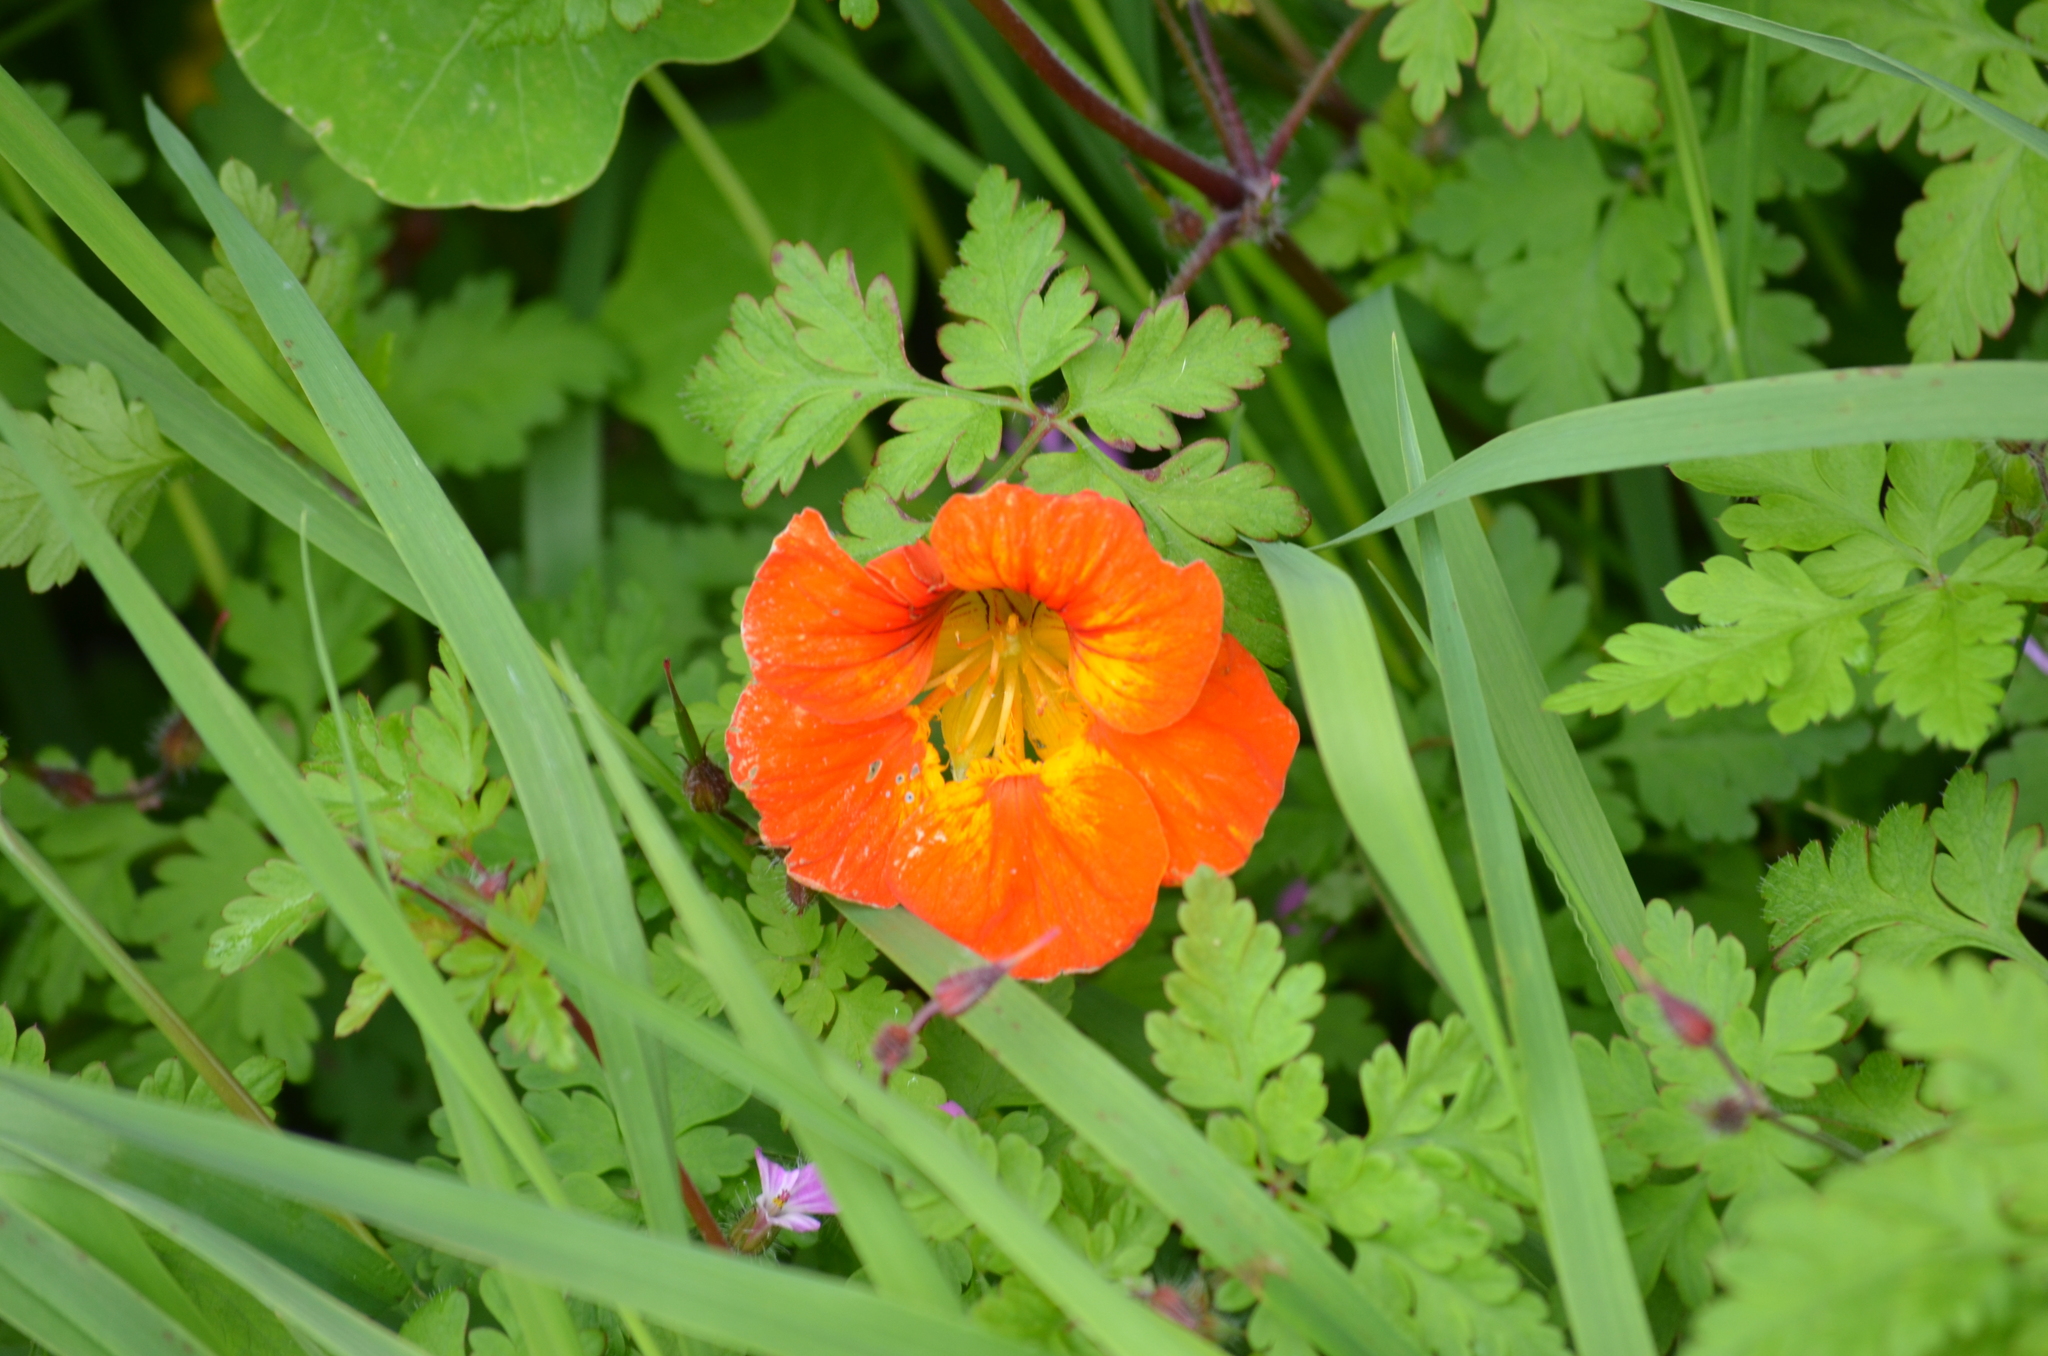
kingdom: Plantae
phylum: Tracheophyta
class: Magnoliopsida
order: Brassicales
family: Tropaeolaceae
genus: Tropaeolum
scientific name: Tropaeolum majus
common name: Nasturtium
